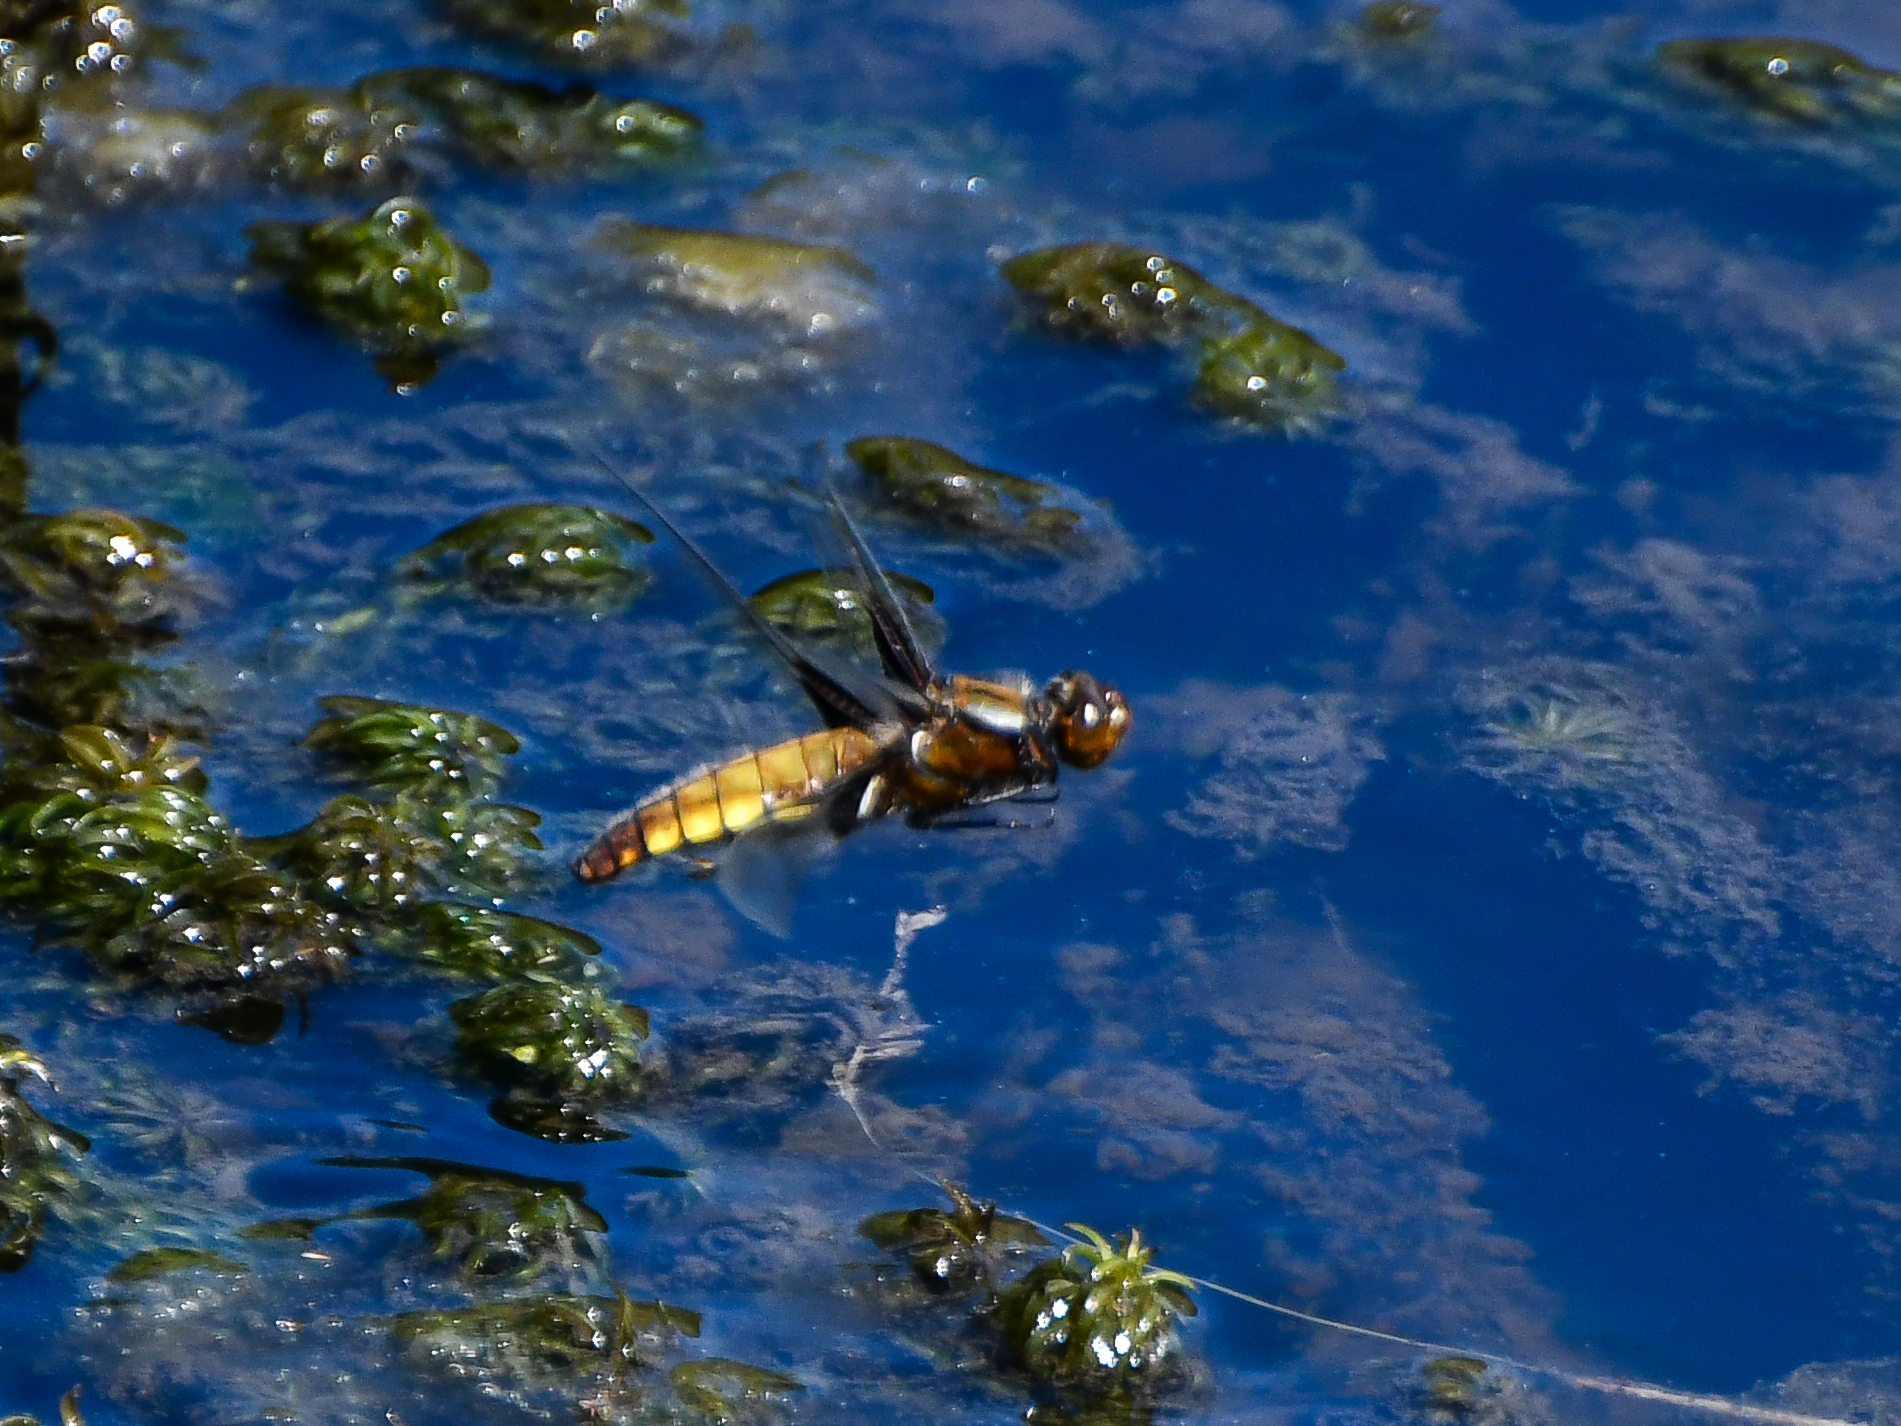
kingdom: Animalia
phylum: Arthropoda
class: Insecta
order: Odonata
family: Libellulidae
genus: Libellula
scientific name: Libellula depressa
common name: Broad-bodied chaser
